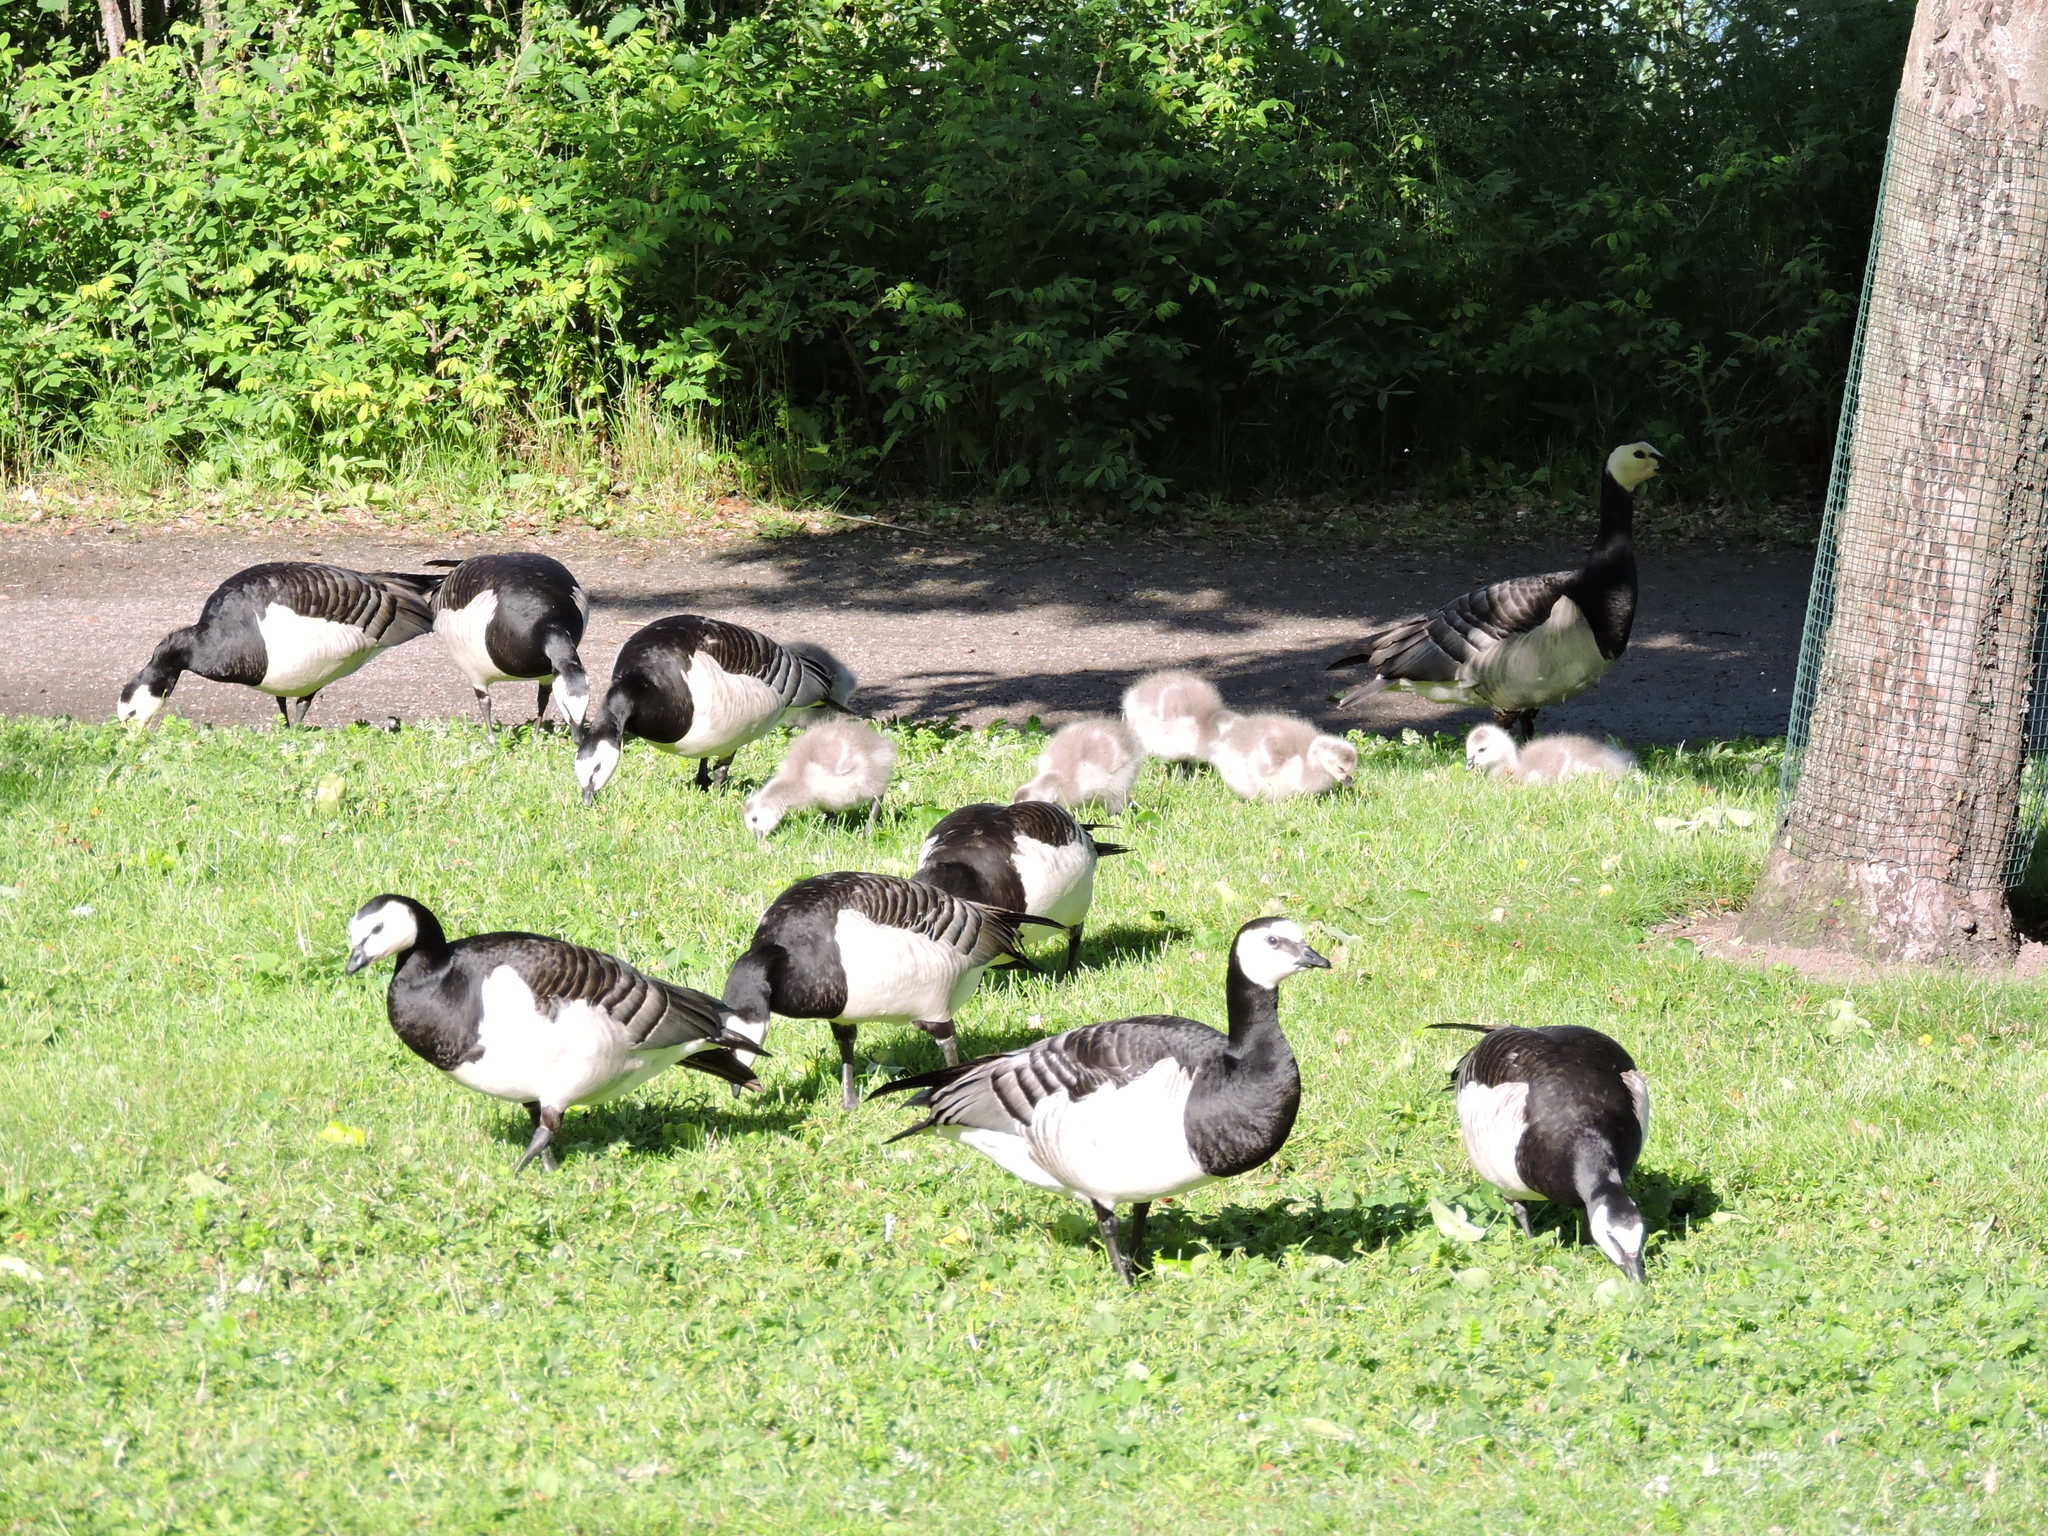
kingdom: Animalia
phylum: Chordata
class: Aves
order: Anseriformes
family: Anatidae
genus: Branta
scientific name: Branta leucopsis
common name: Barnacle goose
